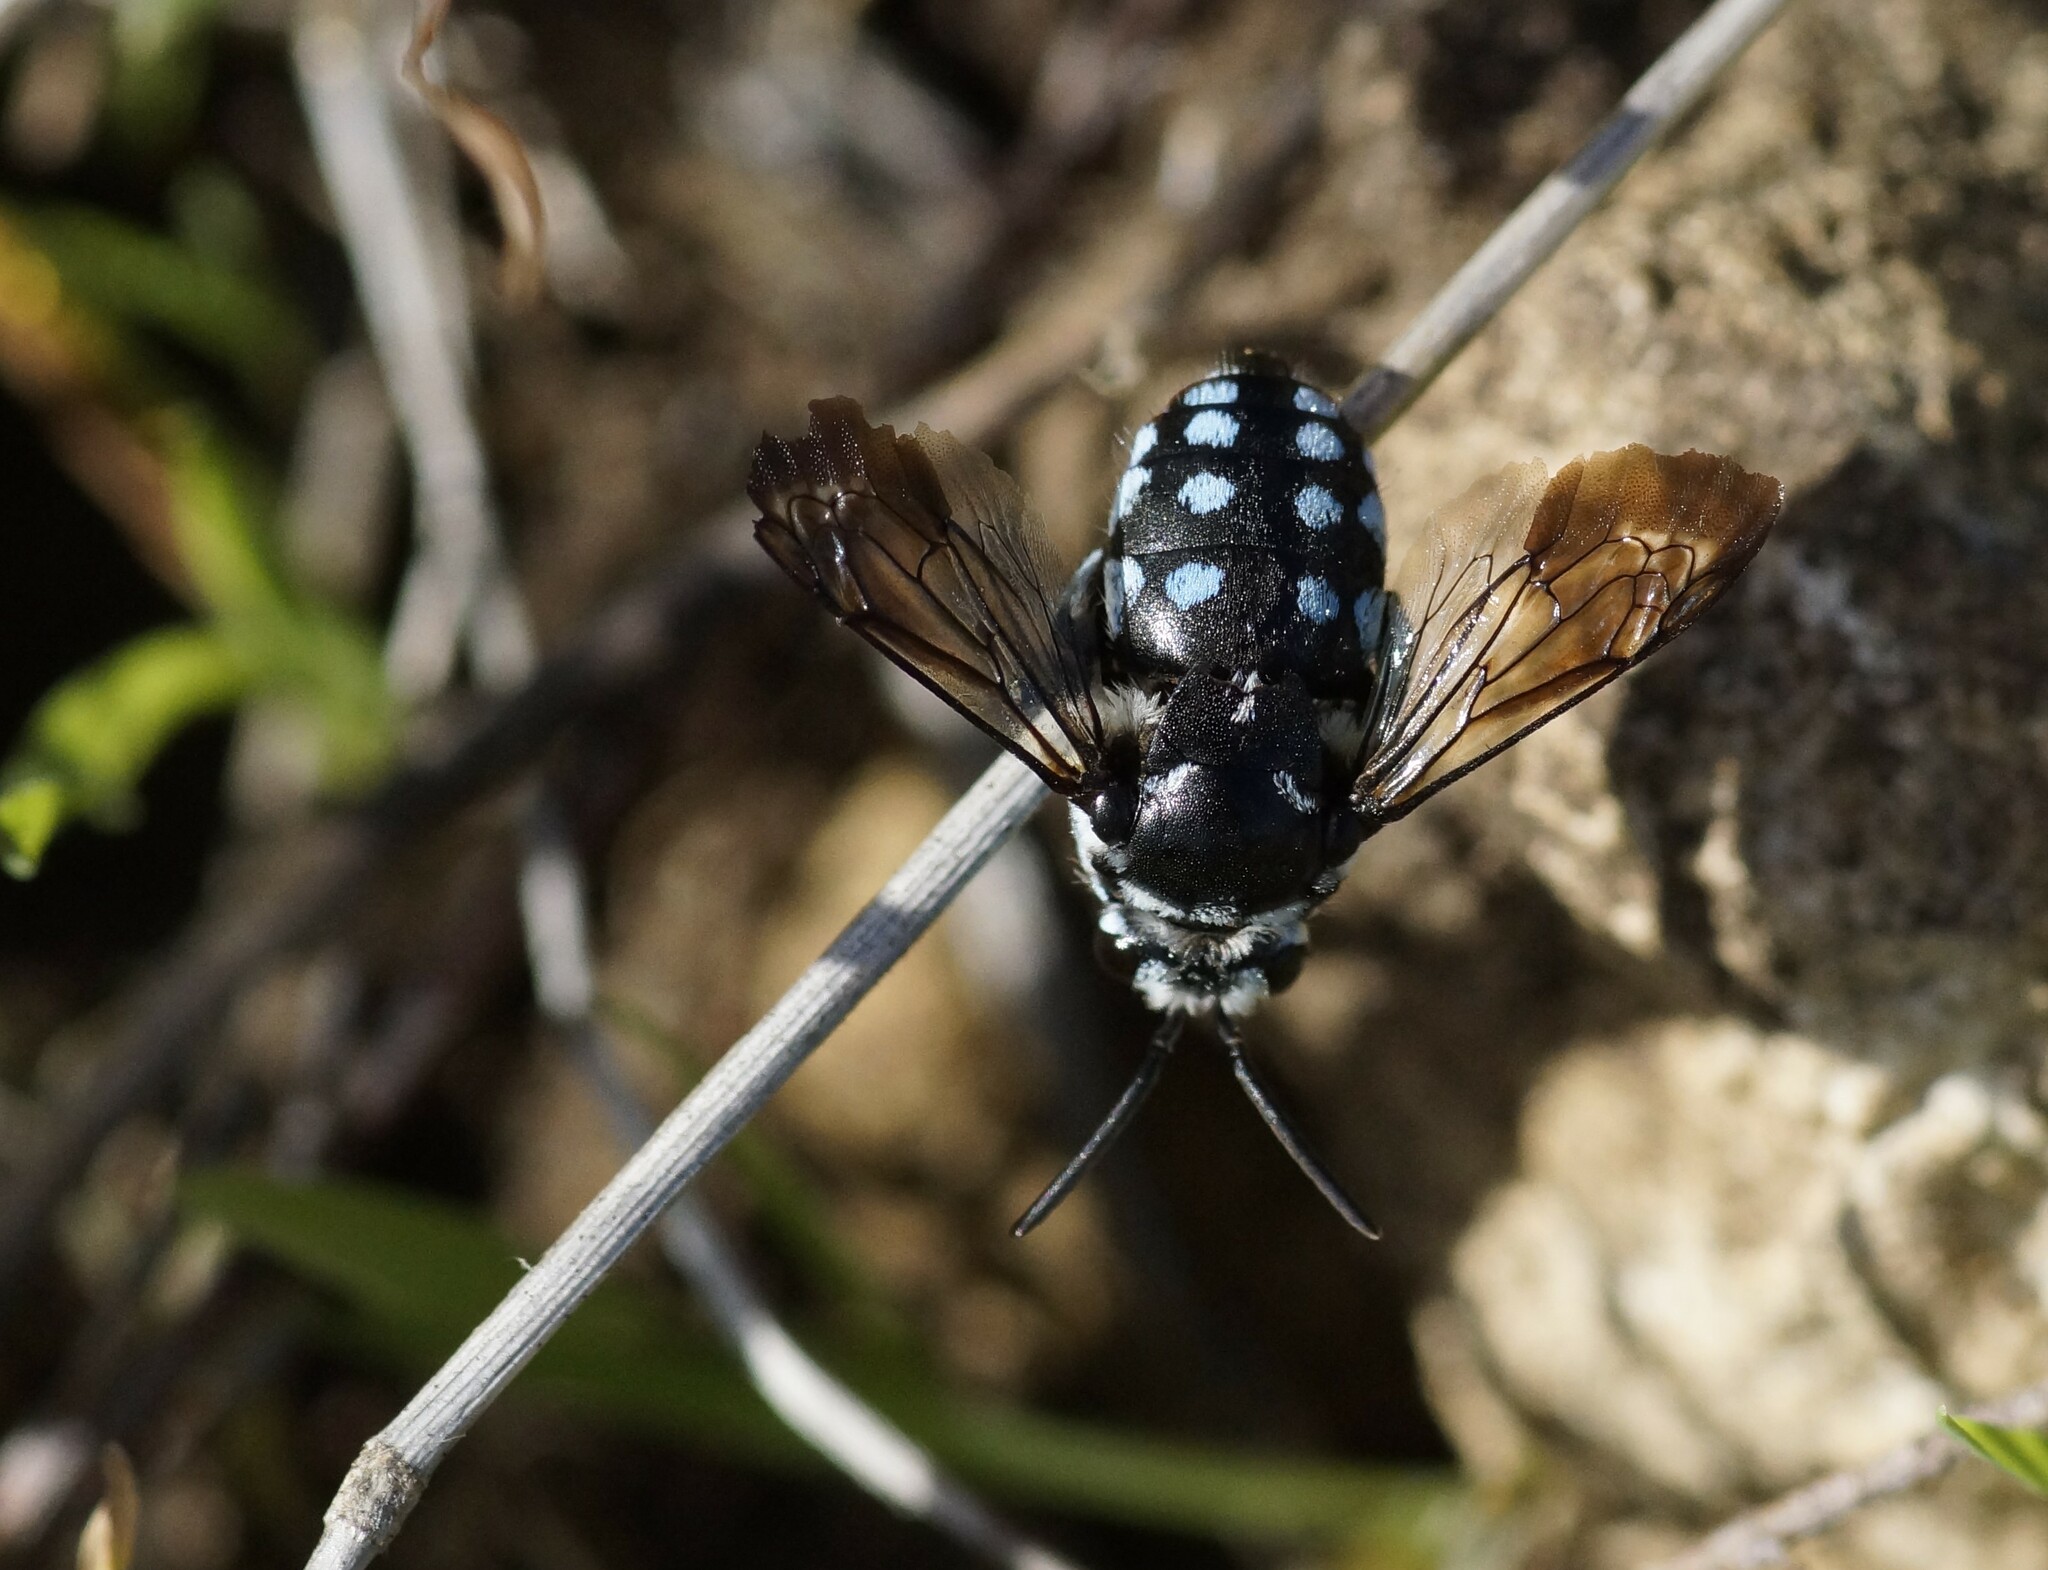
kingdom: Animalia
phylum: Arthropoda
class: Insecta
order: Hymenoptera
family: Apidae
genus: Thyreus
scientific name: Thyreus caeruleopunctatus
